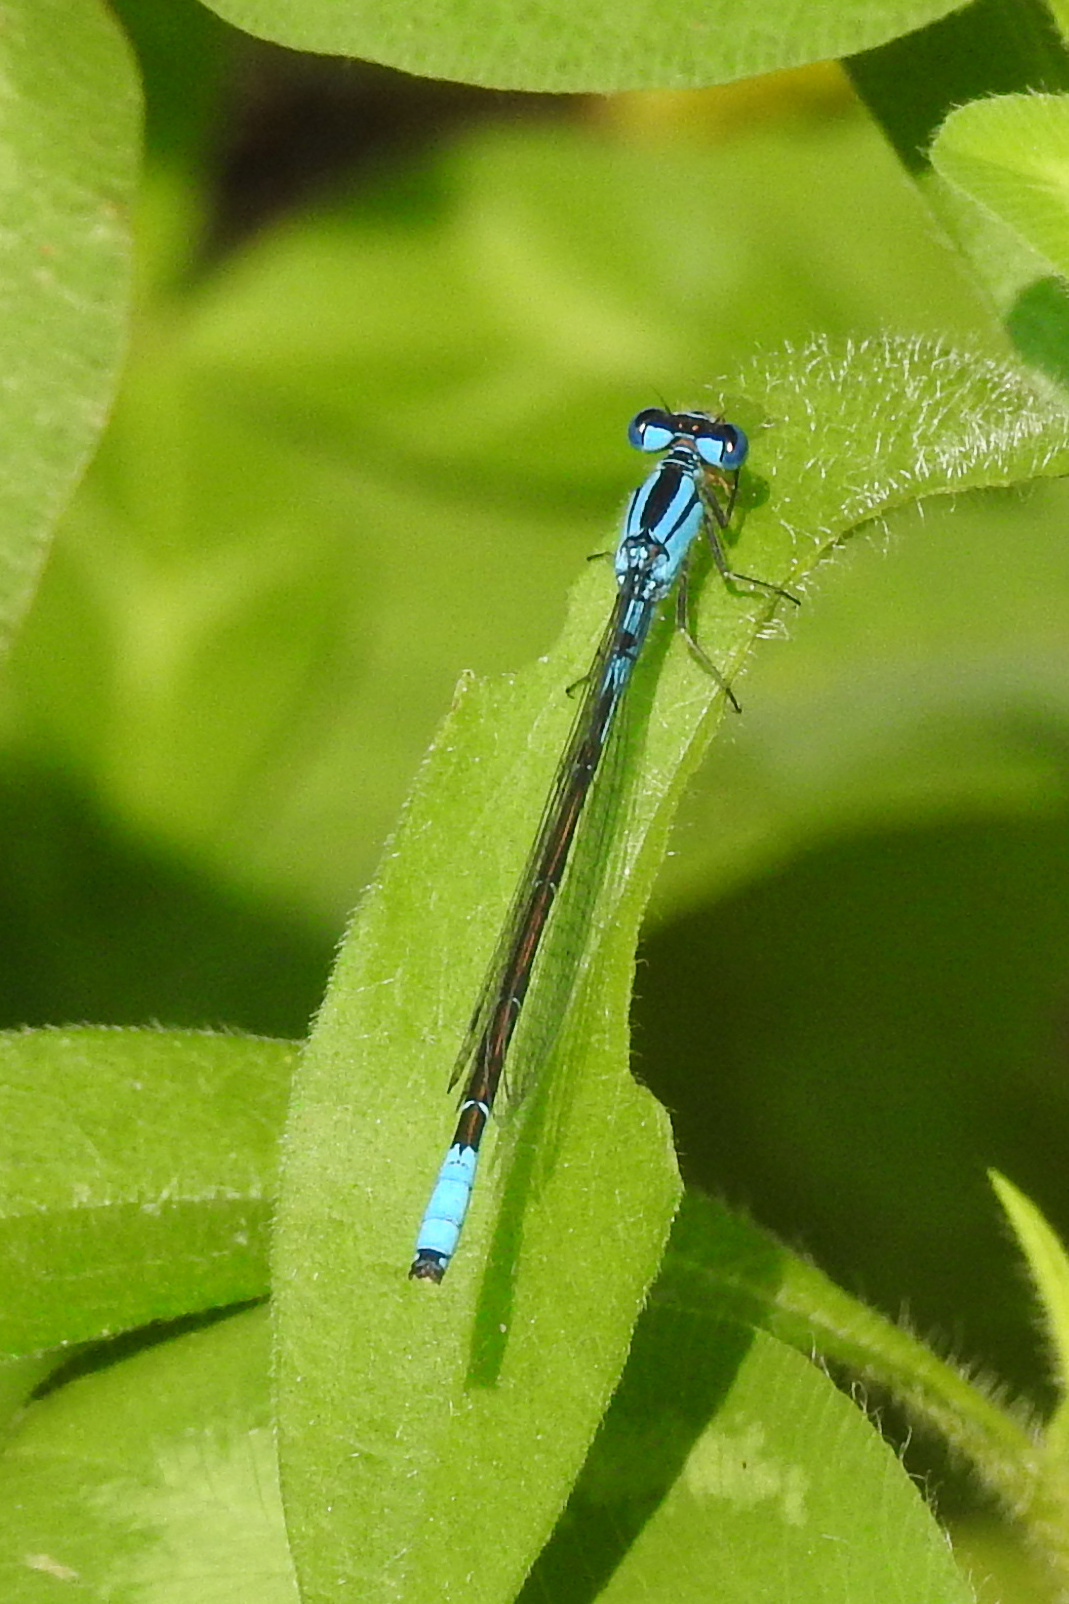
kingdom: Animalia
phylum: Arthropoda
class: Insecta
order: Odonata
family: Coenagrionidae
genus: Enallagma
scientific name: Enallagma aspersum
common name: Azure bluet
